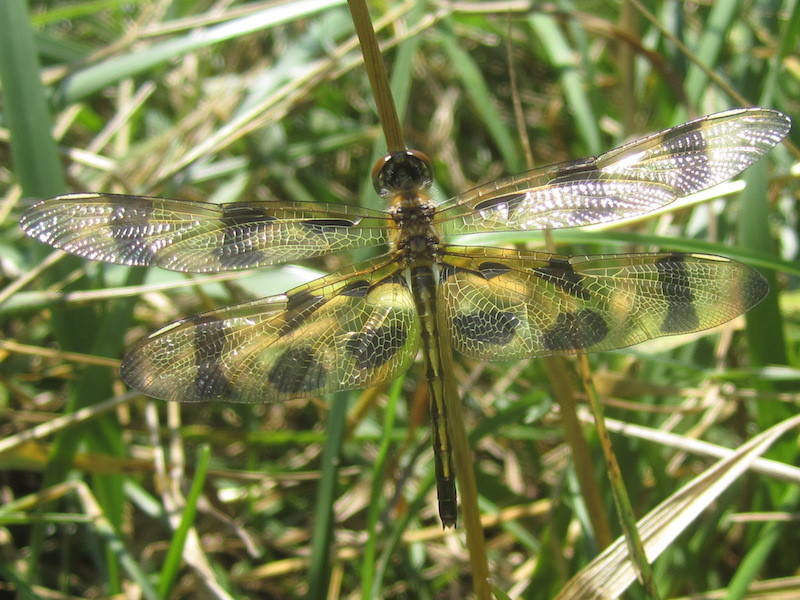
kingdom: Animalia
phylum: Arthropoda
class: Insecta
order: Odonata
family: Libellulidae
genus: Celithemis
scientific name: Celithemis eponina
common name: Halloween pennant
